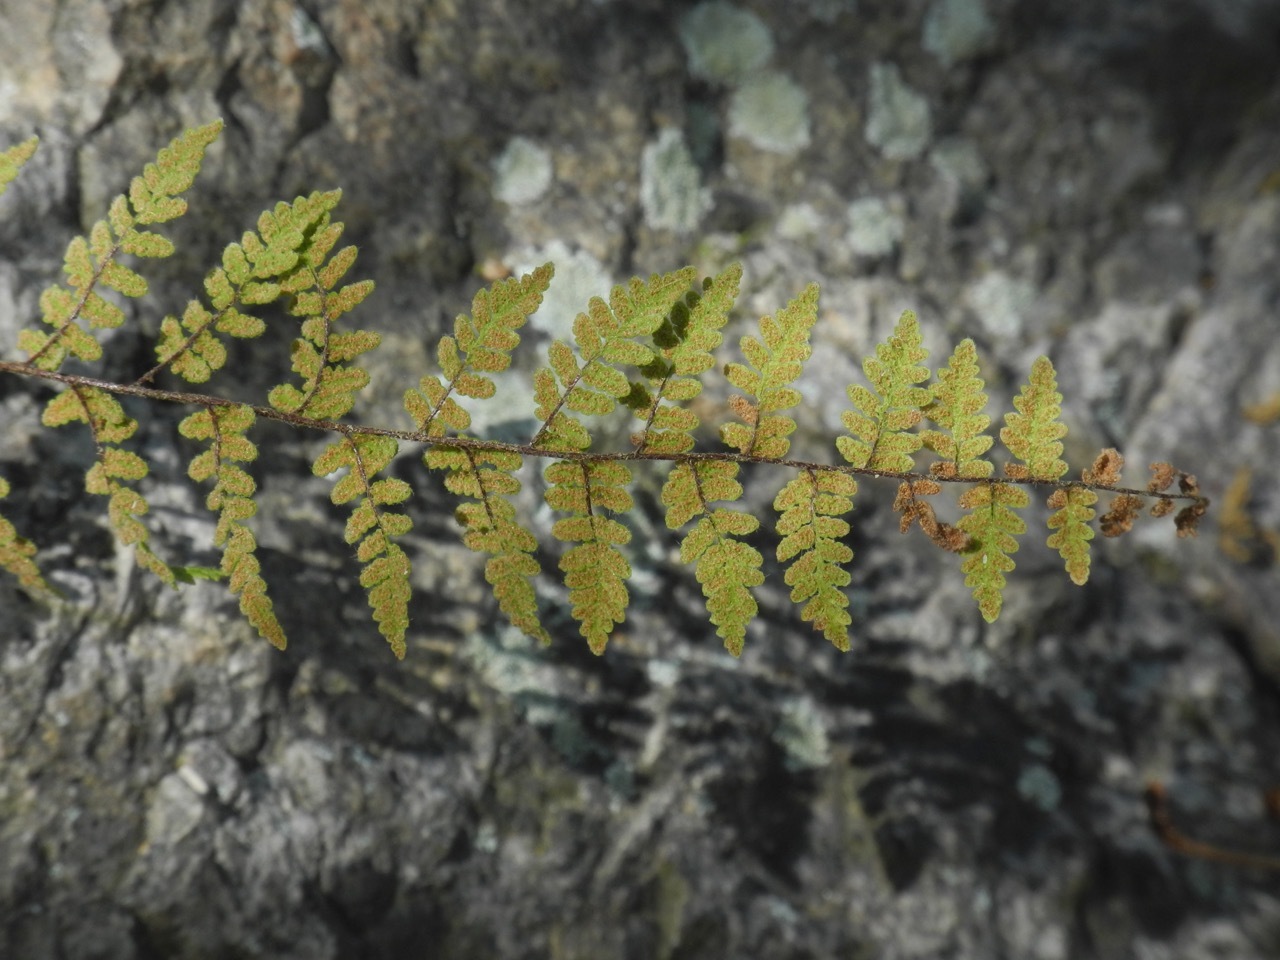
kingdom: Plantae
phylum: Tracheophyta
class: Polypodiopsida
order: Polypodiales
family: Pteridaceae
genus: Myriopteris
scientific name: Myriopteris lanosa
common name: Hairy lip fern
